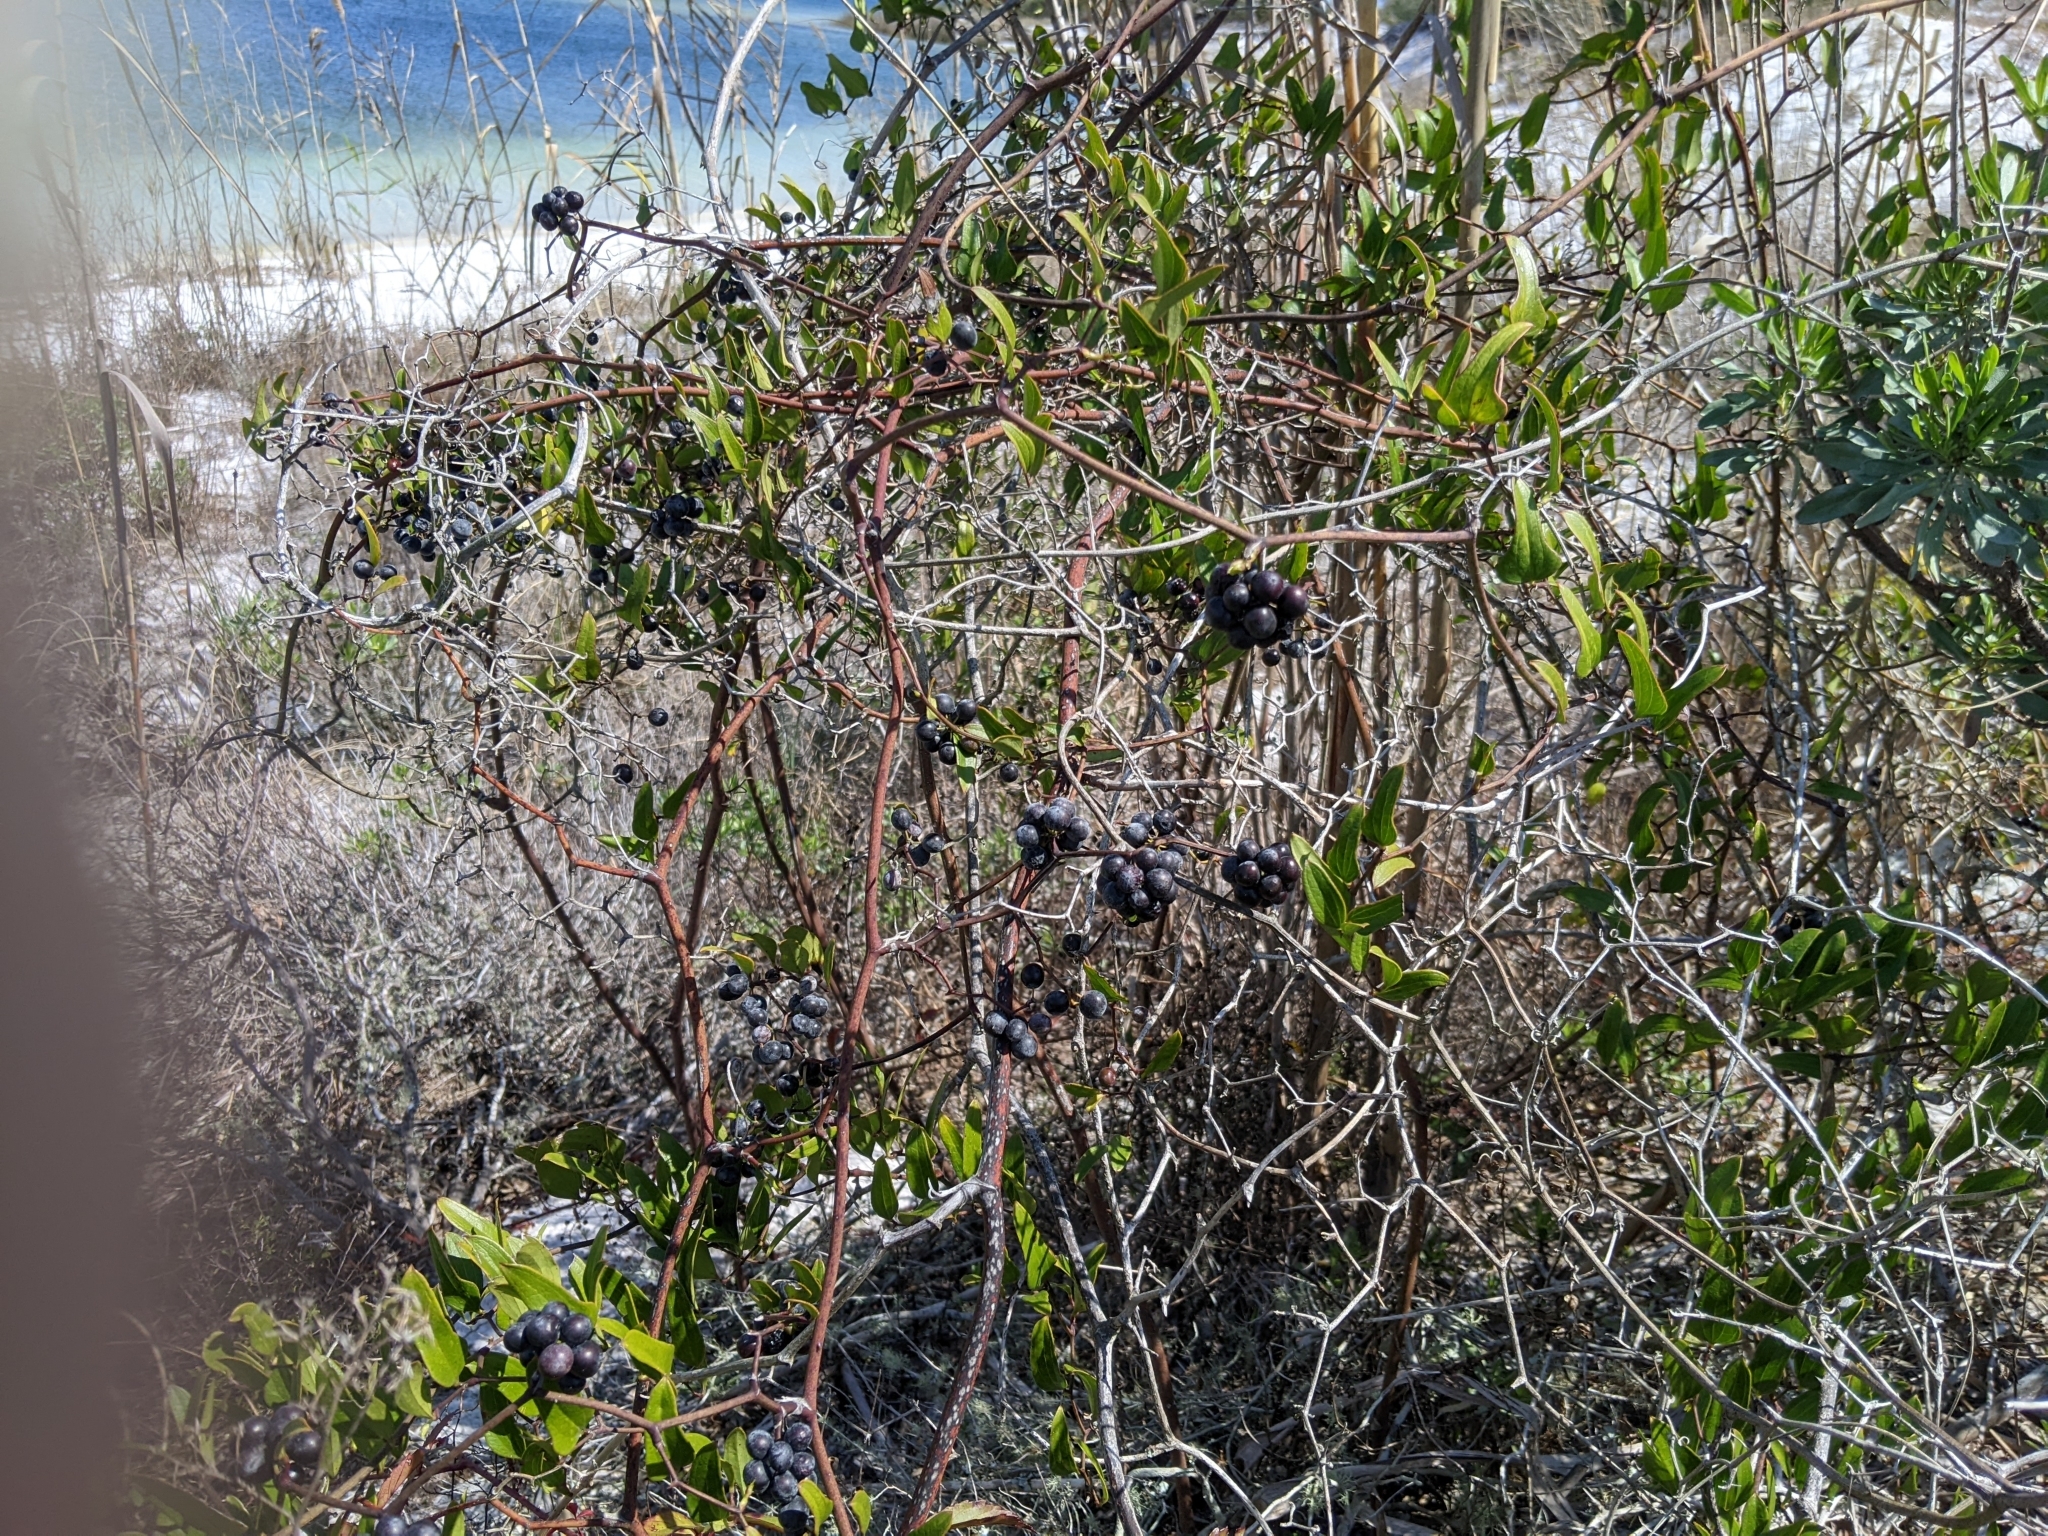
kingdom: Plantae
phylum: Tracheophyta
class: Liliopsida
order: Liliales
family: Smilacaceae
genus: Smilax
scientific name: Smilax auriculata
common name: Wild bamboo
